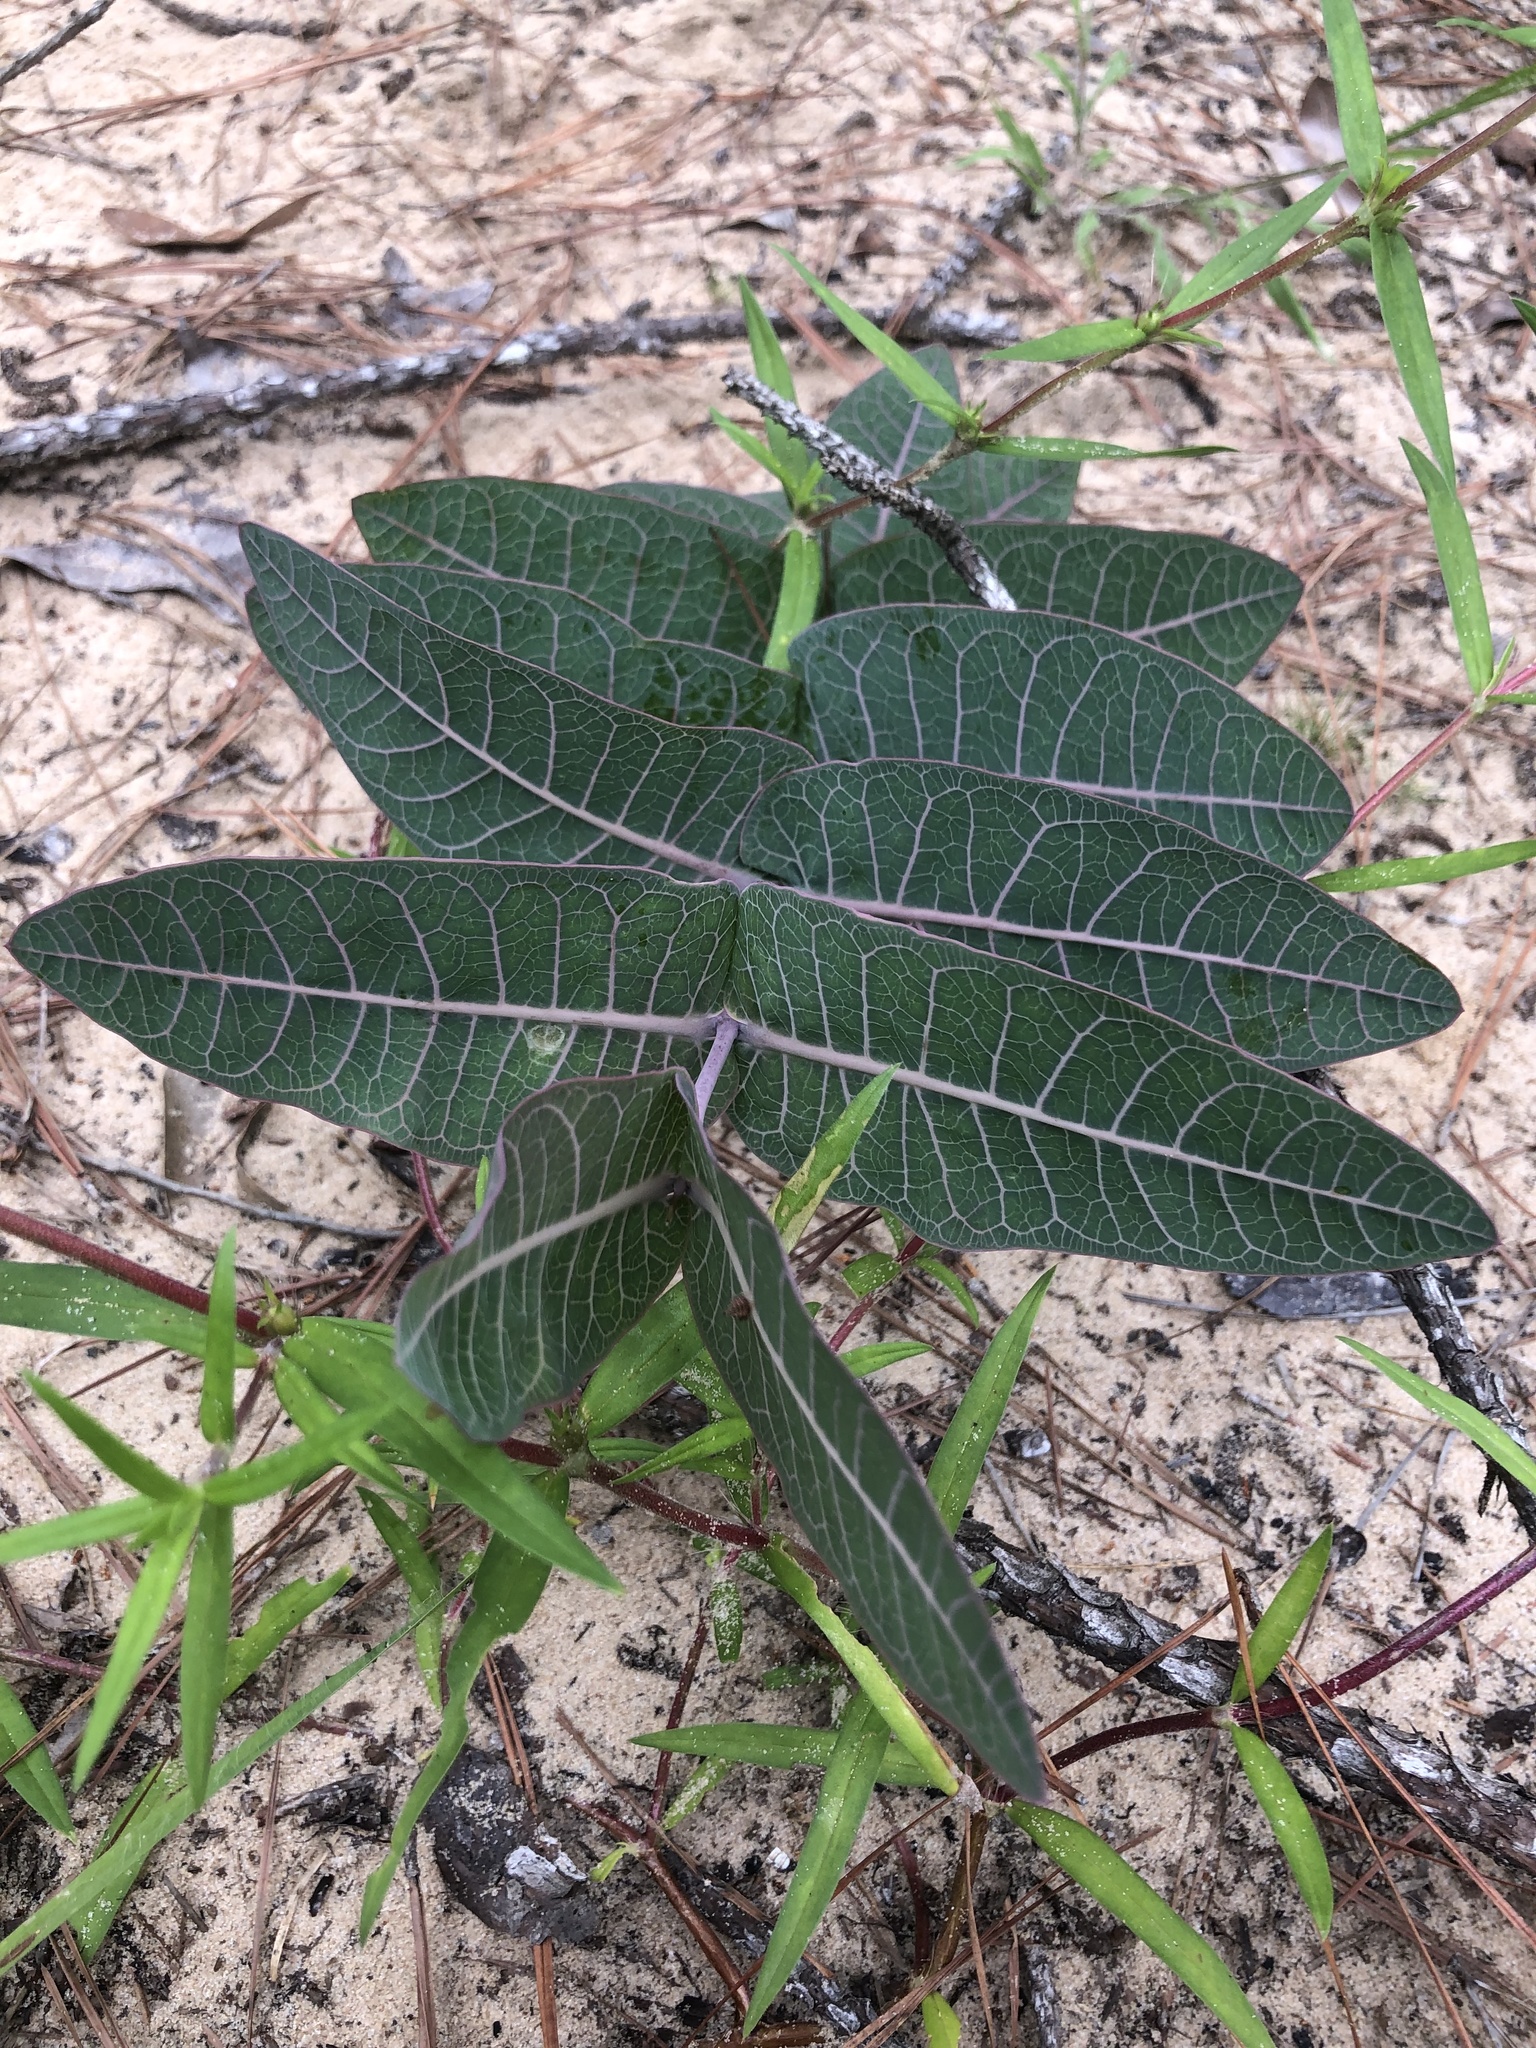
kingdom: Plantae
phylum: Tracheophyta
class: Magnoliopsida
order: Gentianales
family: Apocynaceae
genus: Asclepias
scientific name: Asclepias humistrata
